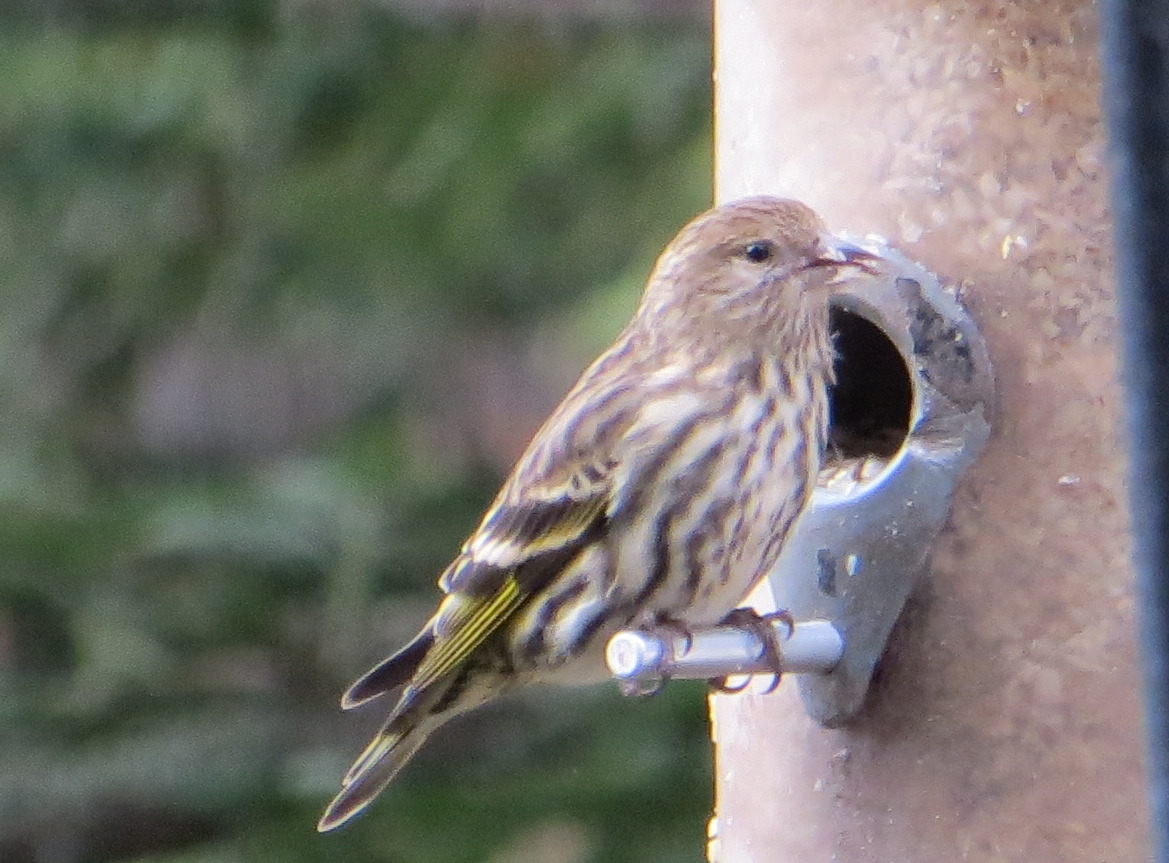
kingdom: Animalia
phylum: Chordata
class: Aves
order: Passeriformes
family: Fringillidae
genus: Spinus
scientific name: Spinus pinus
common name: Pine siskin
